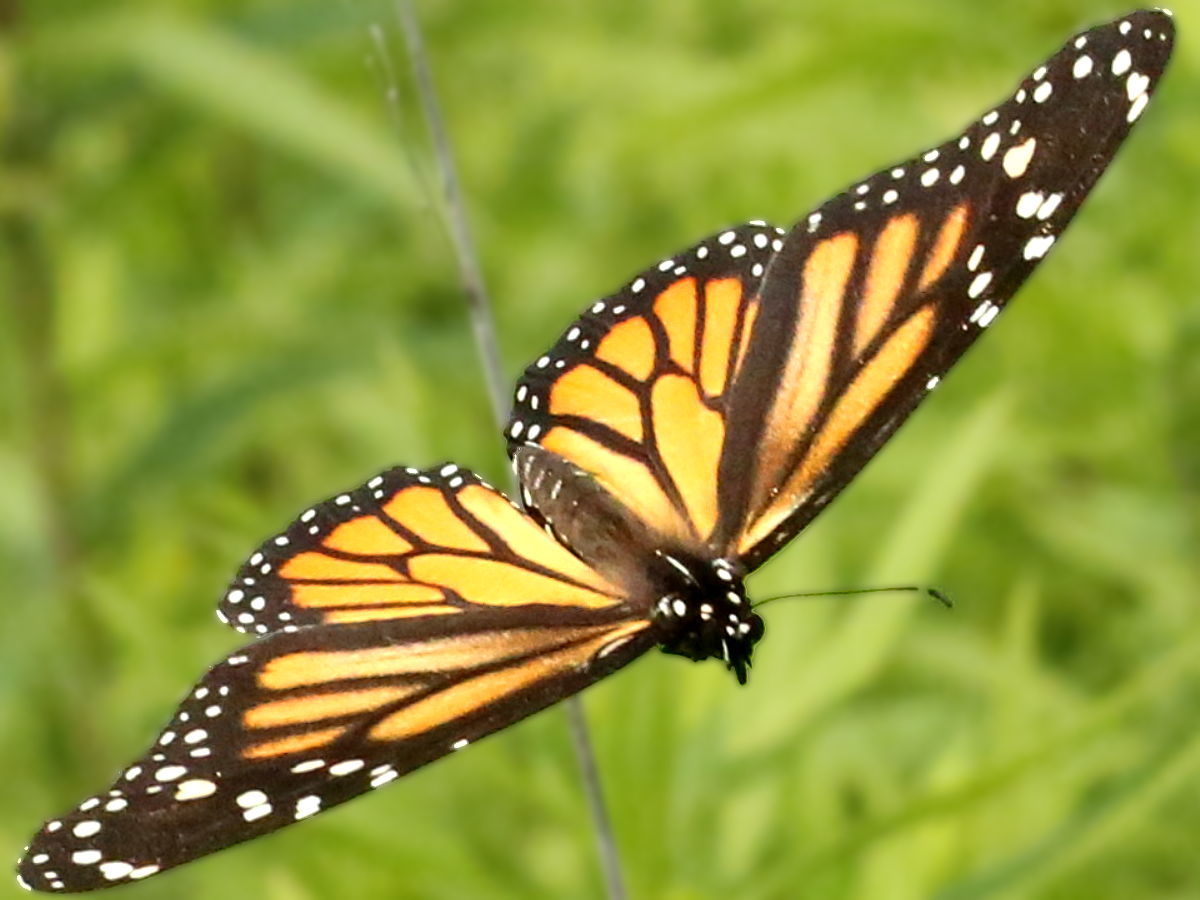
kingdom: Animalia
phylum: Arthropoda
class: Insecta
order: Lepidoptera
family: Nymphalidae
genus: Danaus
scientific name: Danaus plexippus
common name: Monarch
